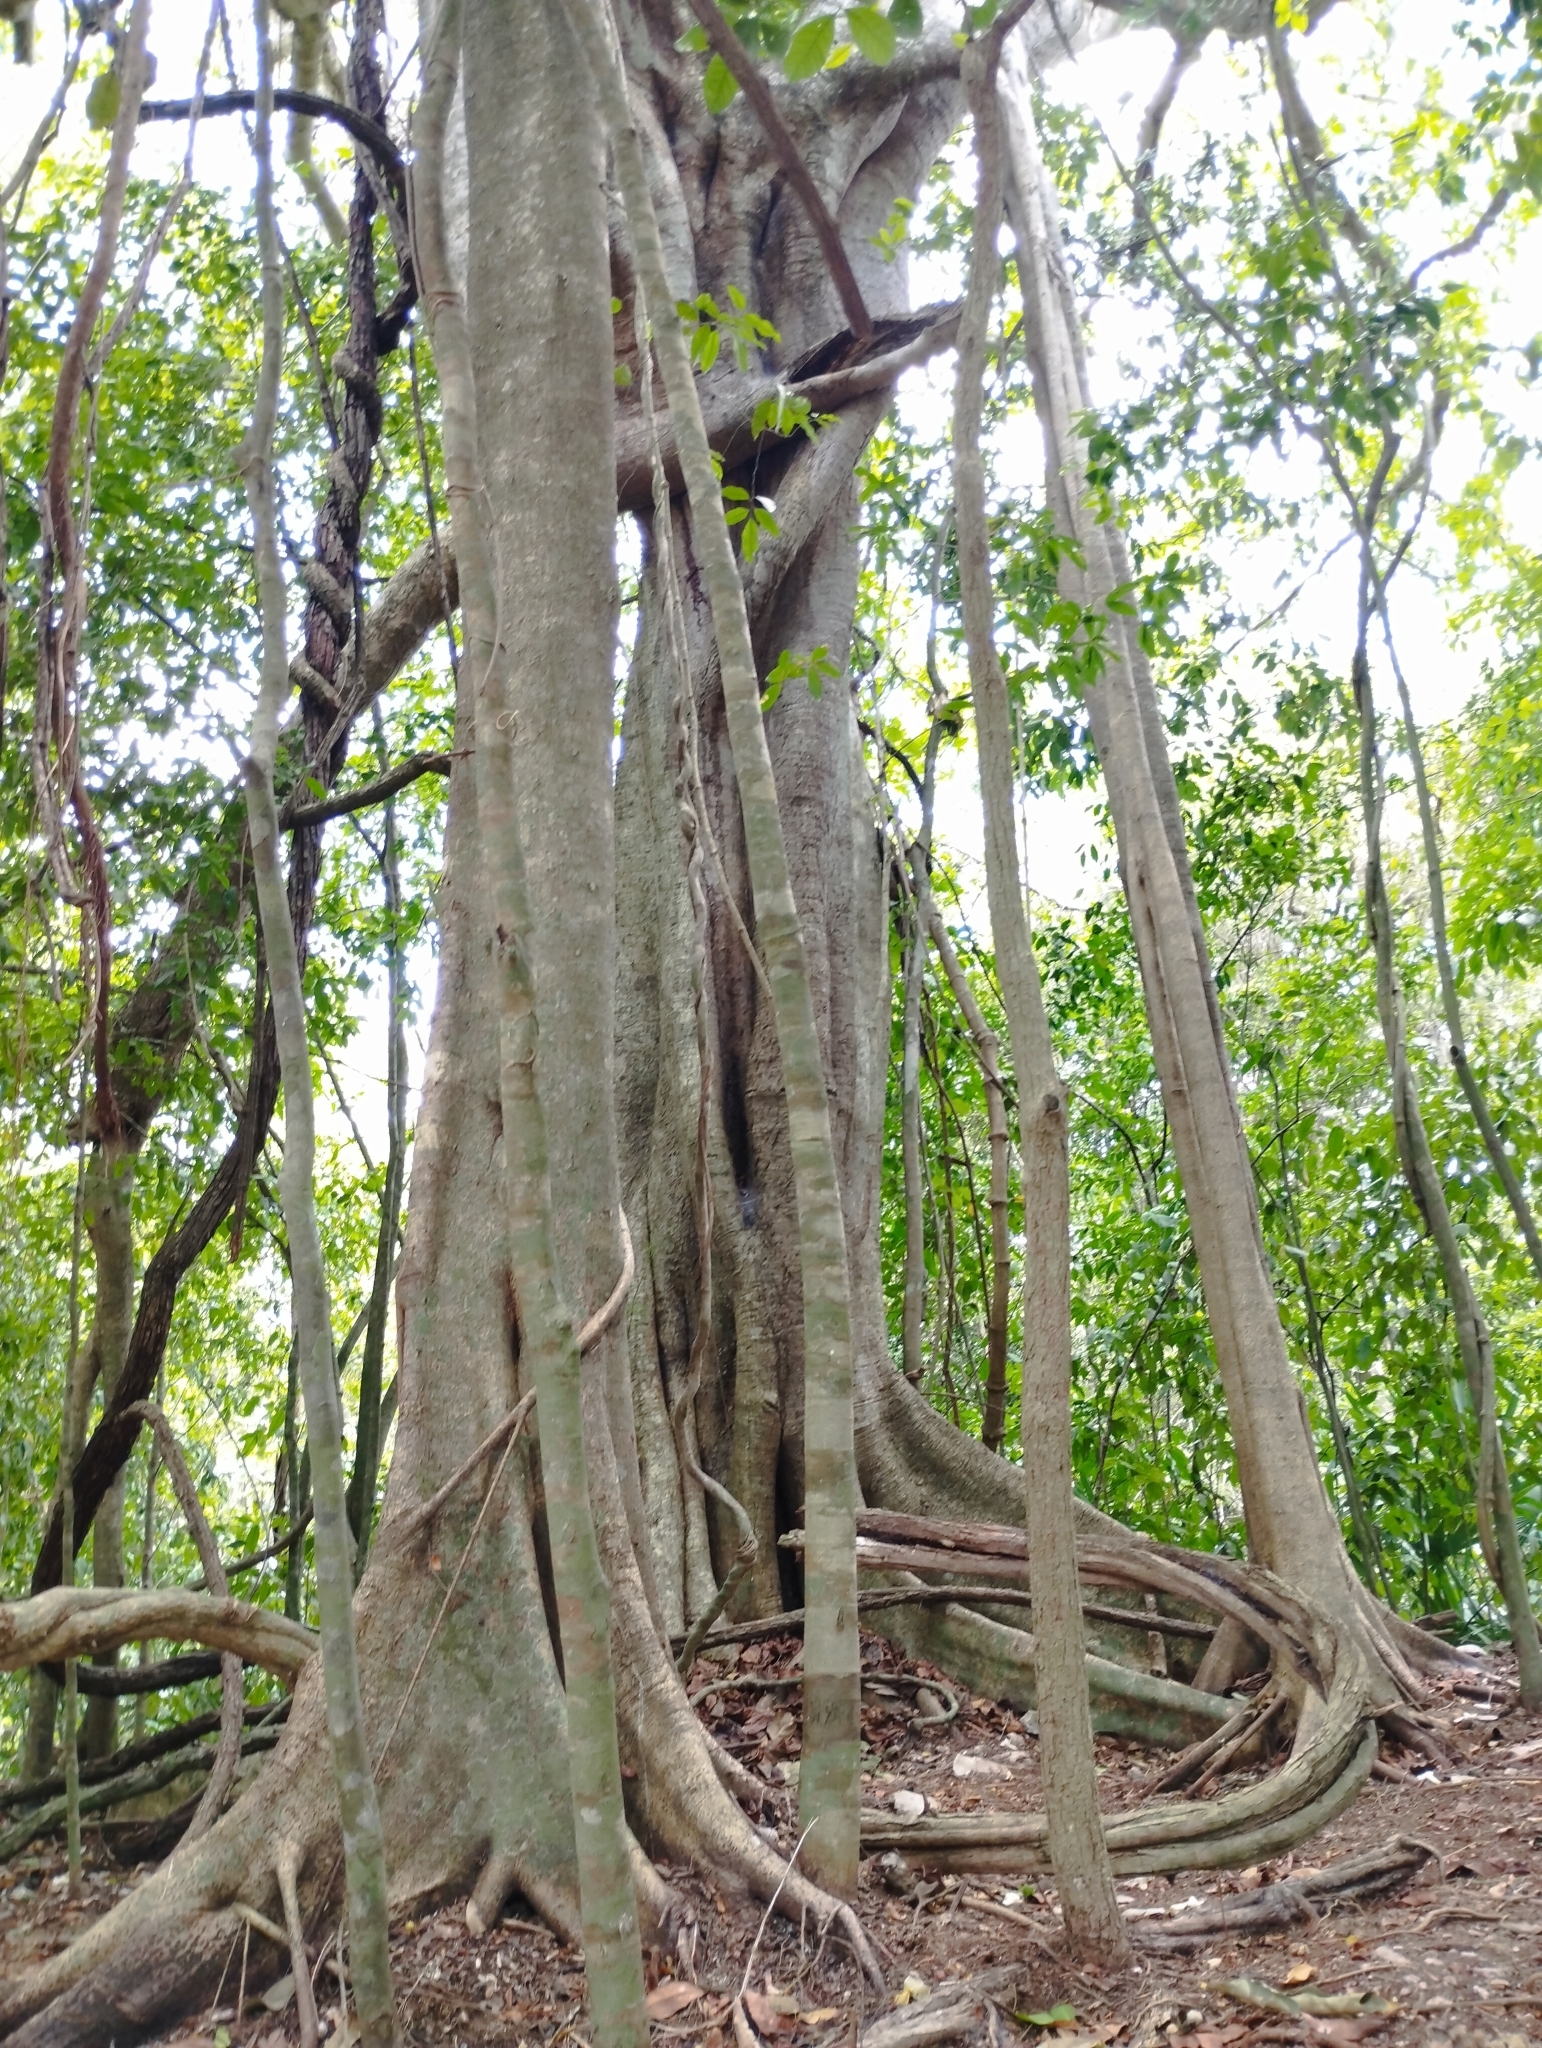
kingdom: Plantae
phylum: Tracheophyta
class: Magnoliopsida
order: Rosales
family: Moraceae
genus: Ficus
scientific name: Ficus cotinifolia
